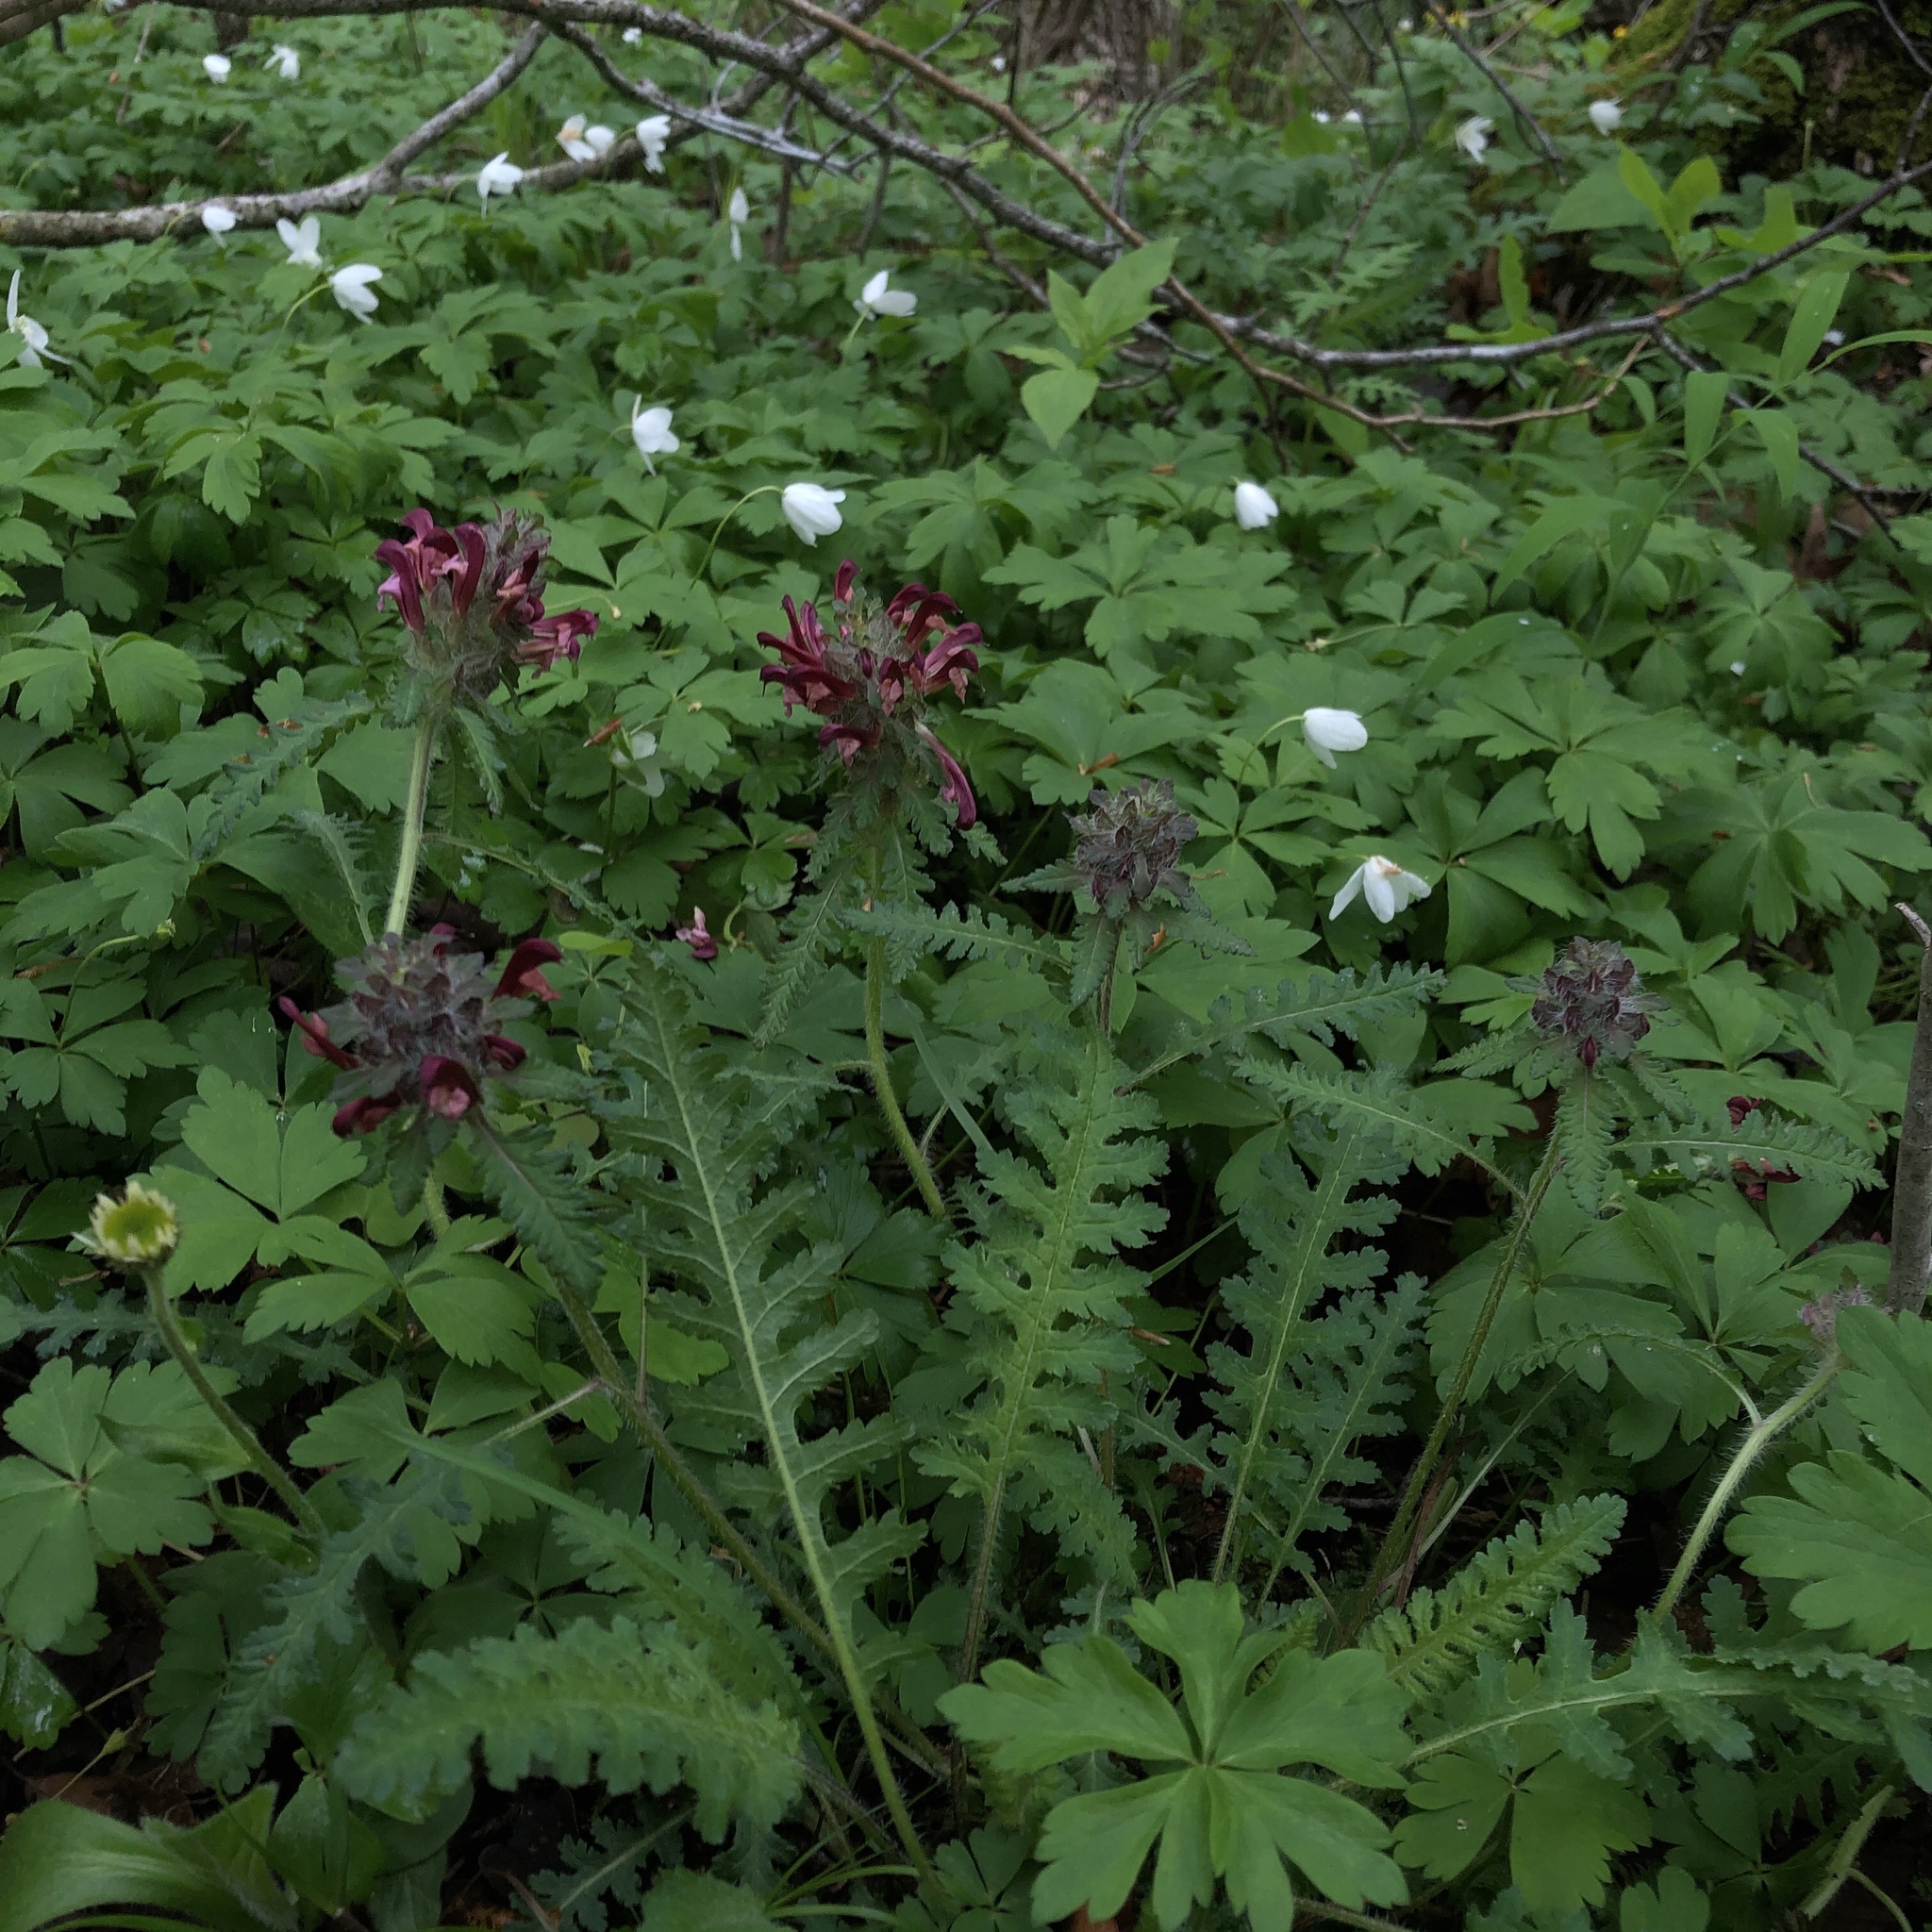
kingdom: Plantae
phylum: Tracheophyta
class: Magnoliopsida
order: Ranunculales
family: Ranunculaceae
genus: Anemone
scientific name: Anemone quinquefolia
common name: Wood anemone
